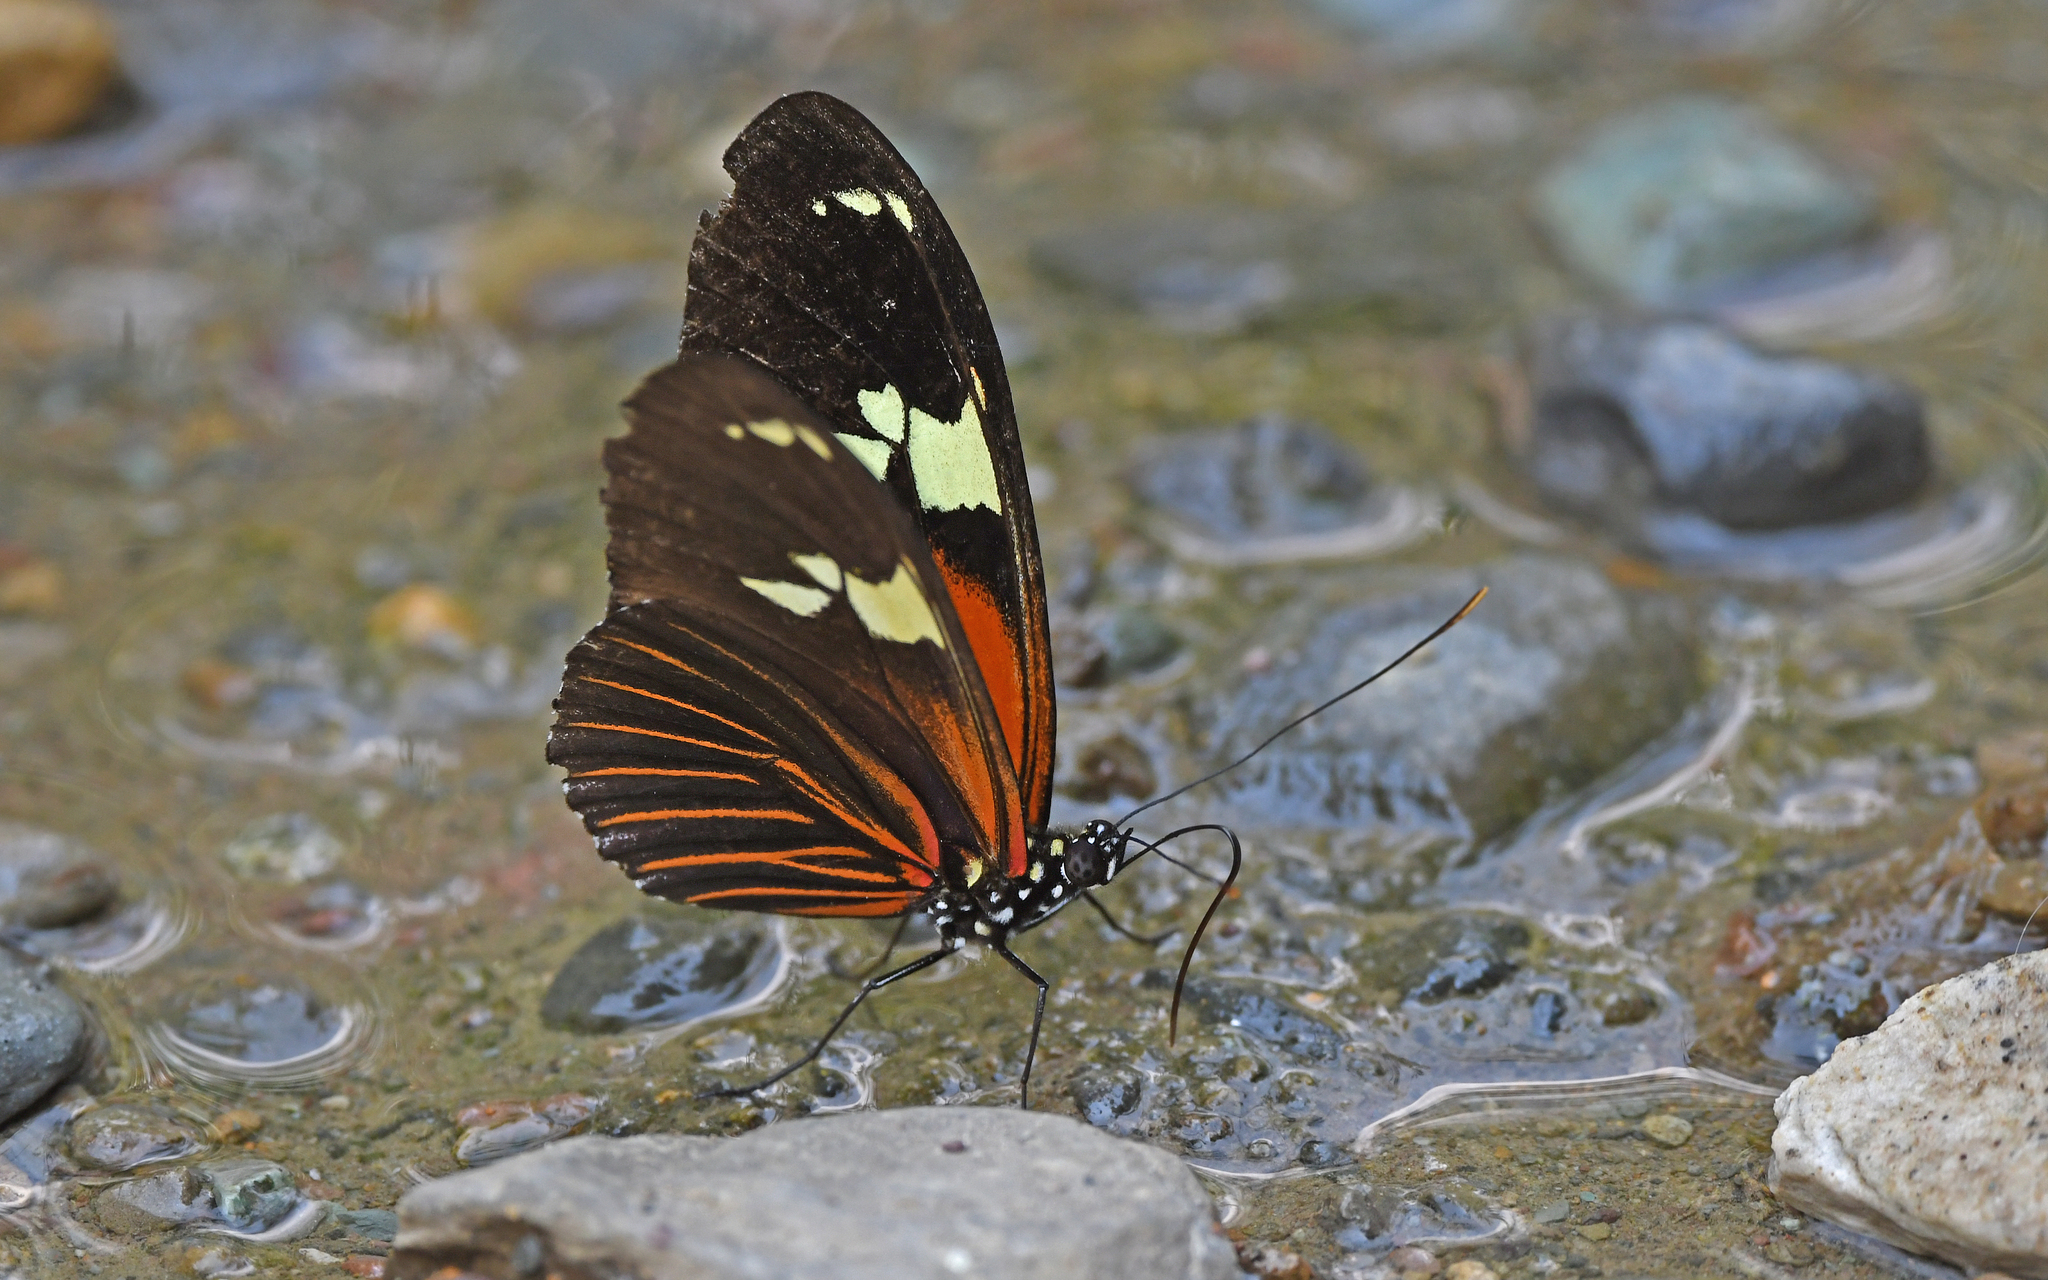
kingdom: Animalia
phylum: Arthropoda
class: Insecta
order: Lepidoptera
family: Nymphalidae
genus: Heliconius
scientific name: Heliconius burneyi
